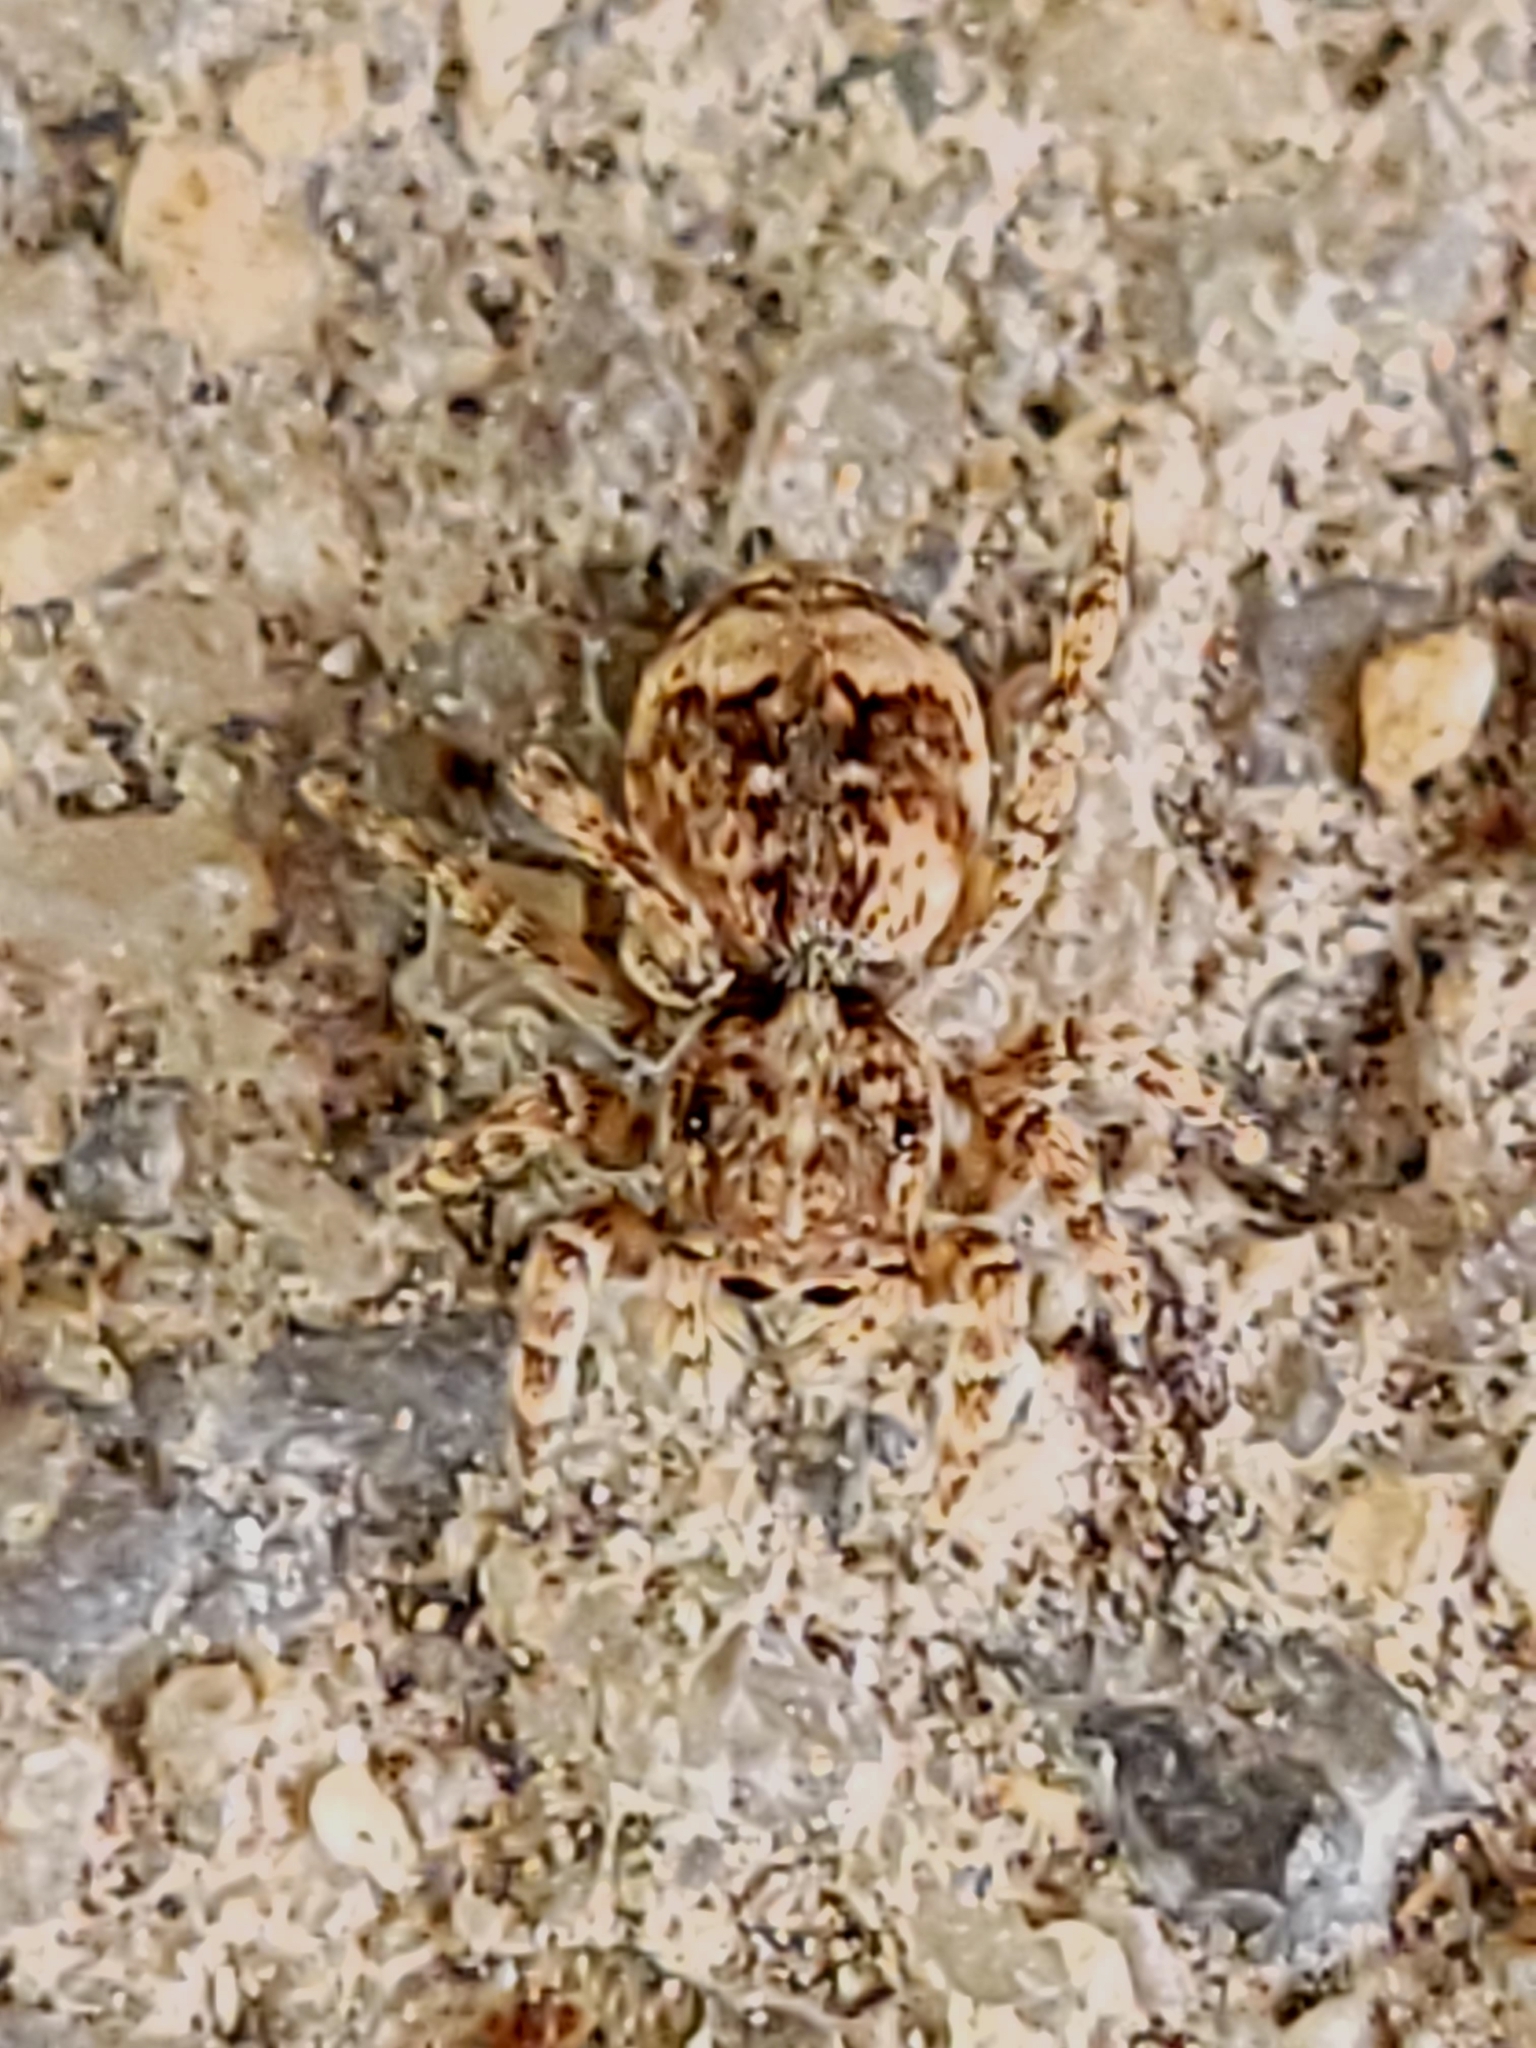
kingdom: Animalia
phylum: Arthropoda
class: Arachnida
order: Araneae
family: Salticidae
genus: Attulus
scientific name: Attulus fasciger
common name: Asiatic wall jumping spider
